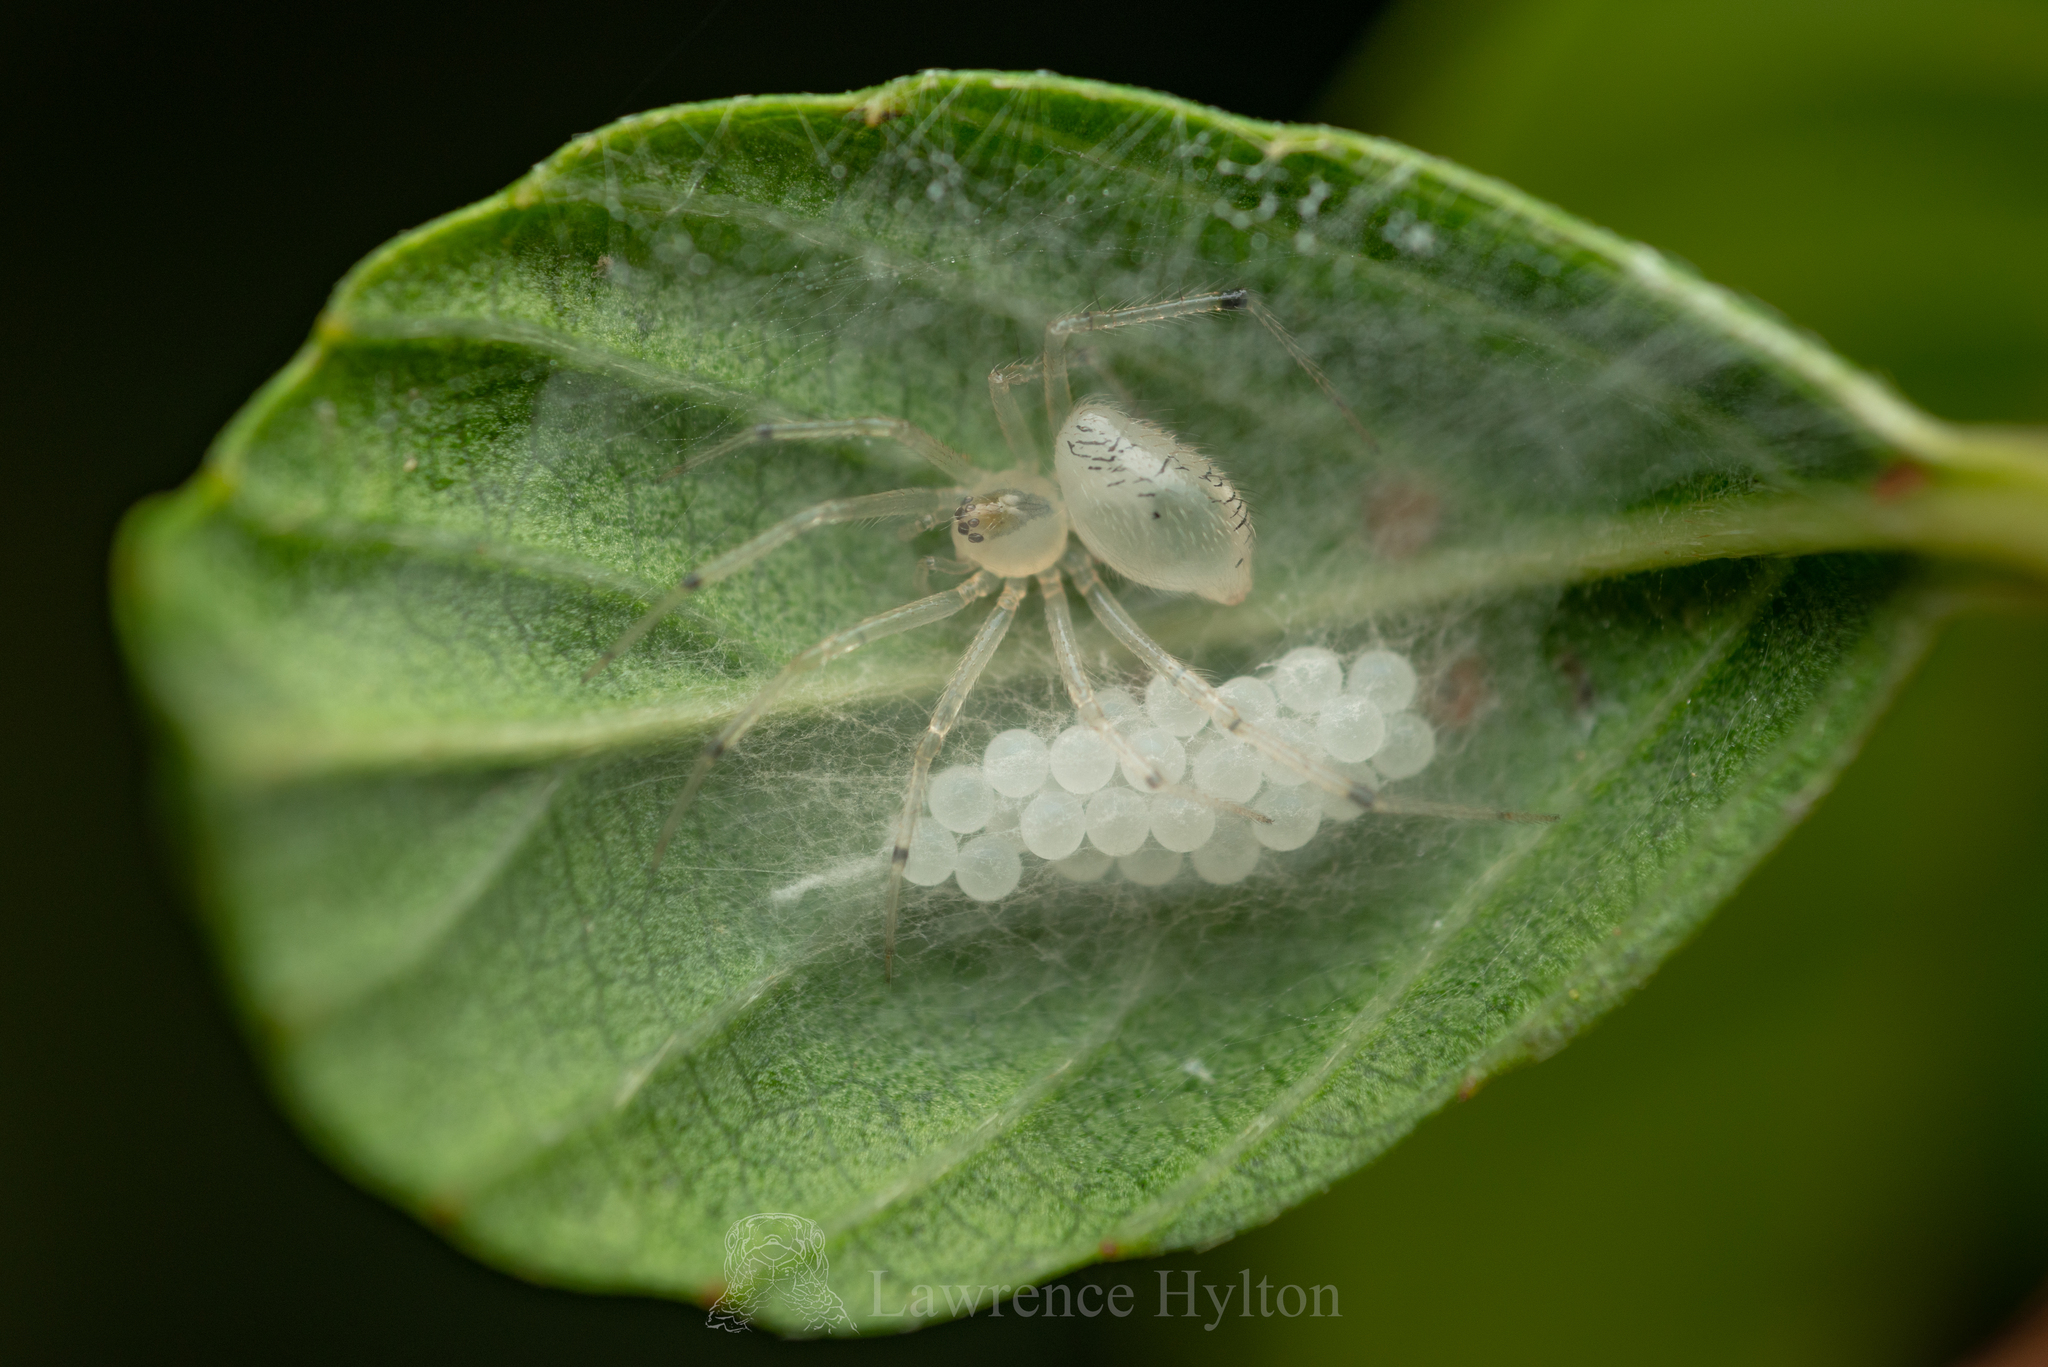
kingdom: Animalia
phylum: Arthropoda
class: Arachnida
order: Araneae
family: Theridiidae
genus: Phycosoma
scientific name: Phycosoma digitula
